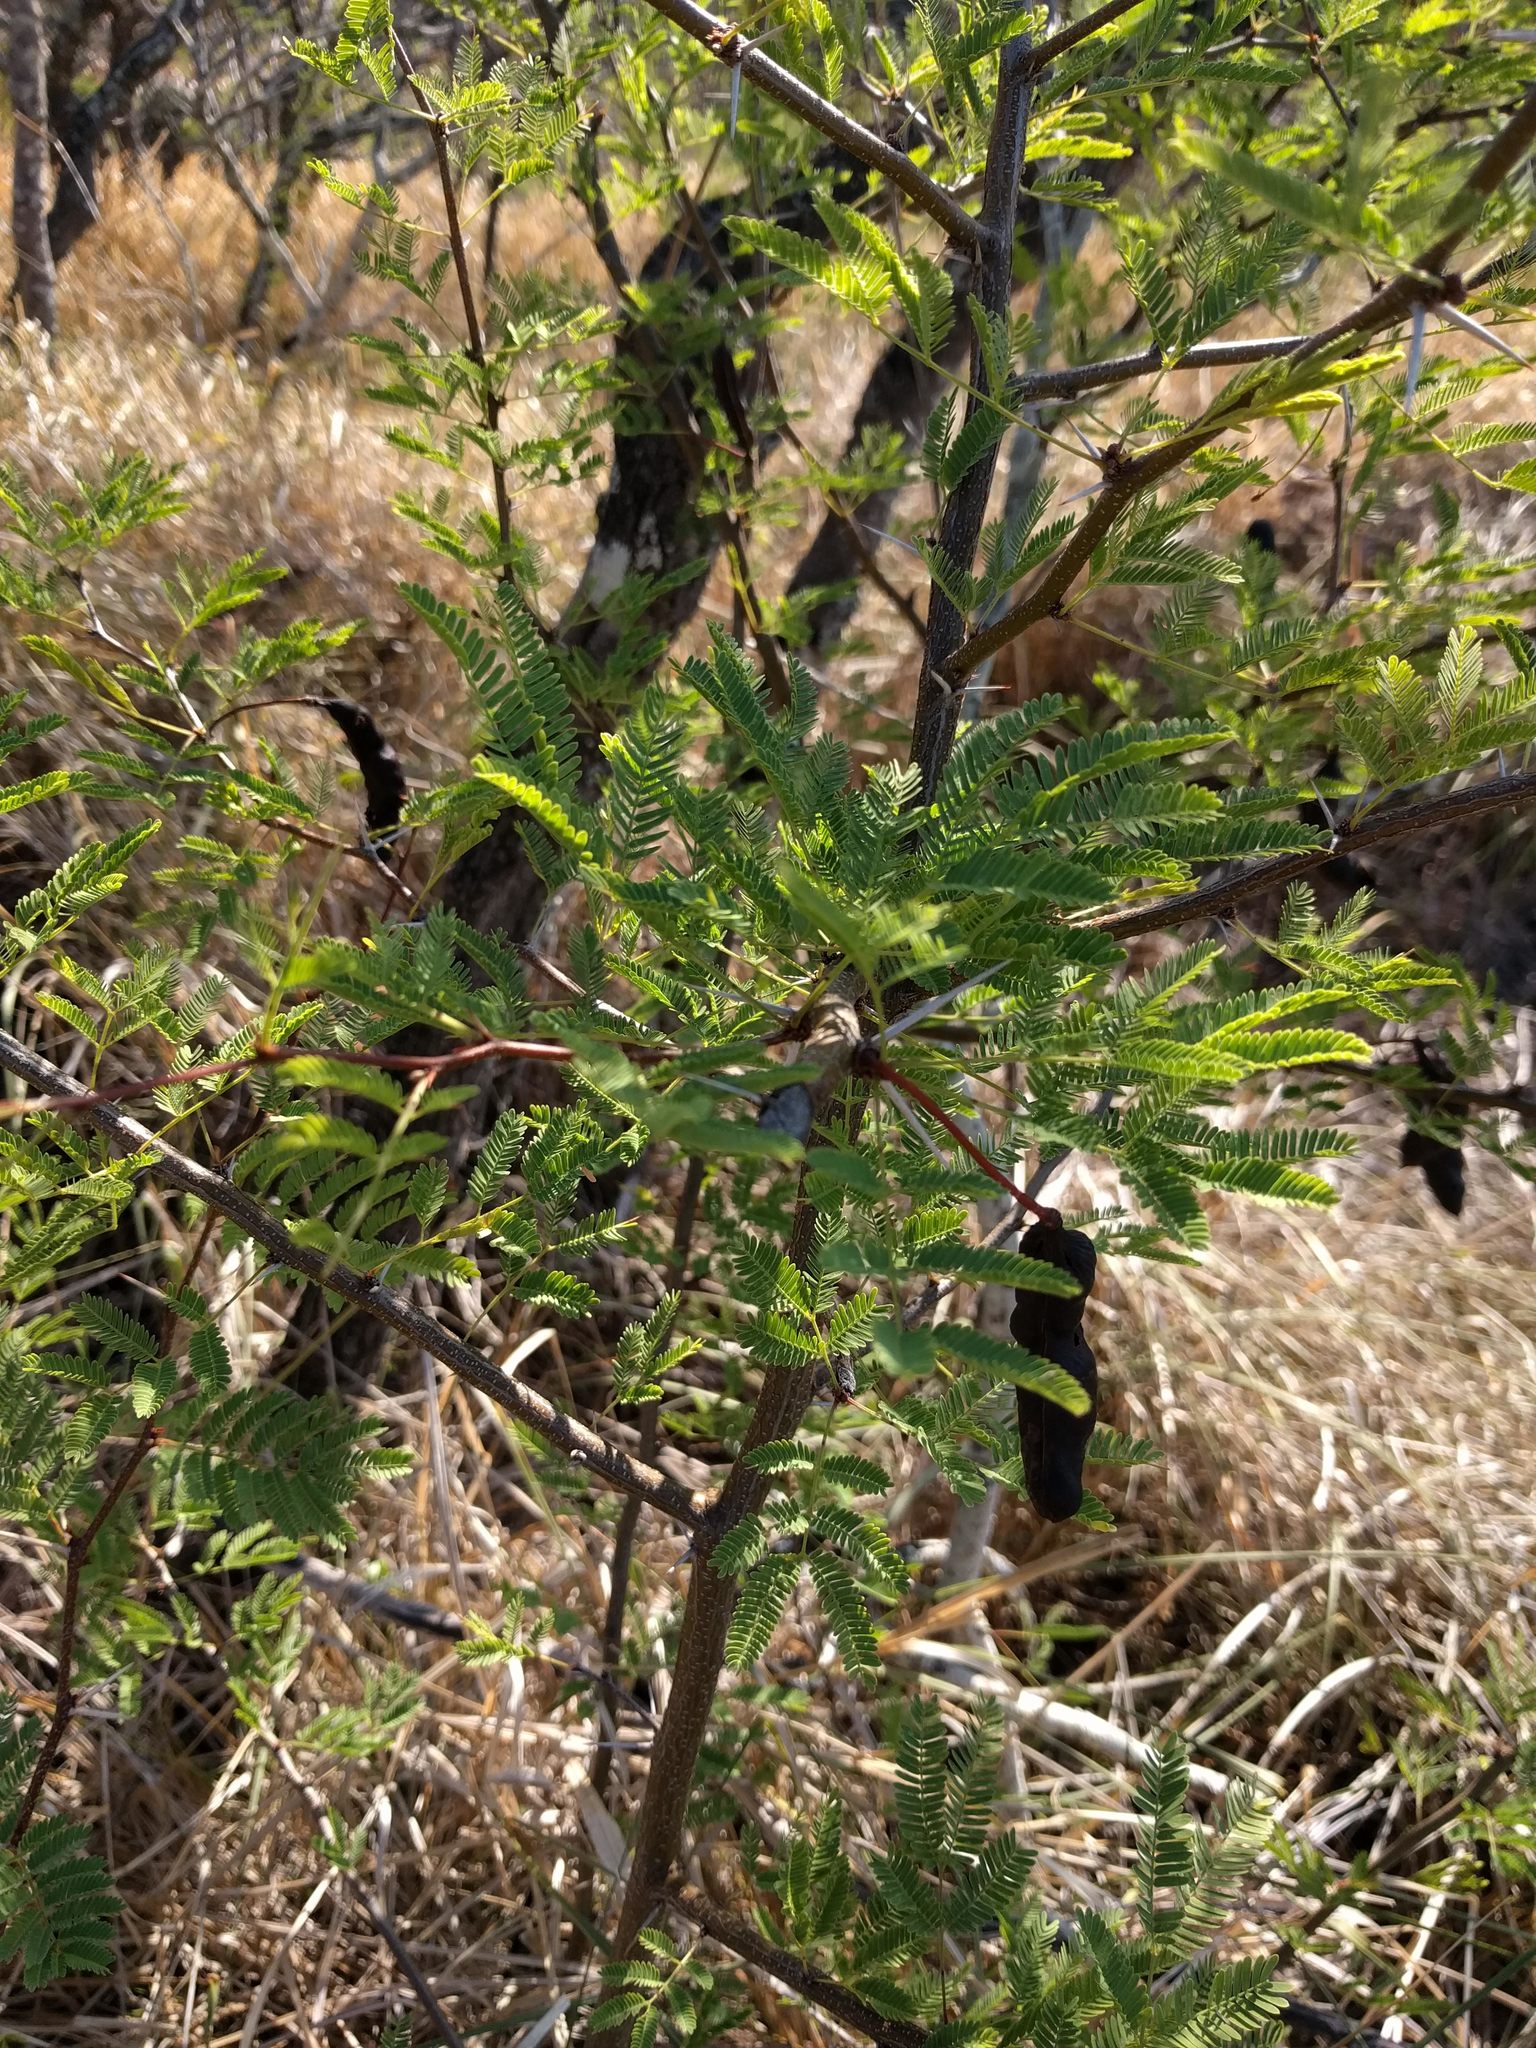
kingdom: Plantae
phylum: Tracheophyta
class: Magnoliopsida
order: Fabales
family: Fabaceae
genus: Vachellia
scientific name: Vachellia farnesiana
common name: Sweet acacia
